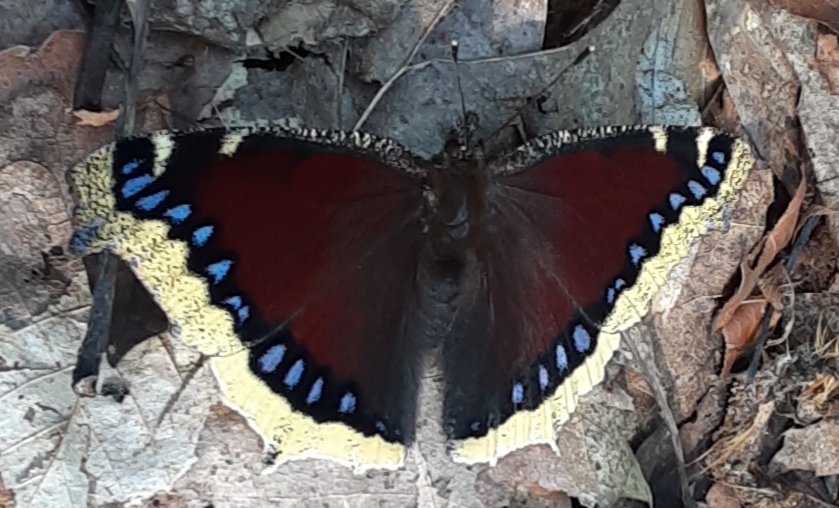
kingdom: Animalia
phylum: Arthropoda
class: Insecta
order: Lepidoptera
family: Nymphalidae
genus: Nymphalis
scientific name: Nymphalis antiopa
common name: Camberwell beauty
